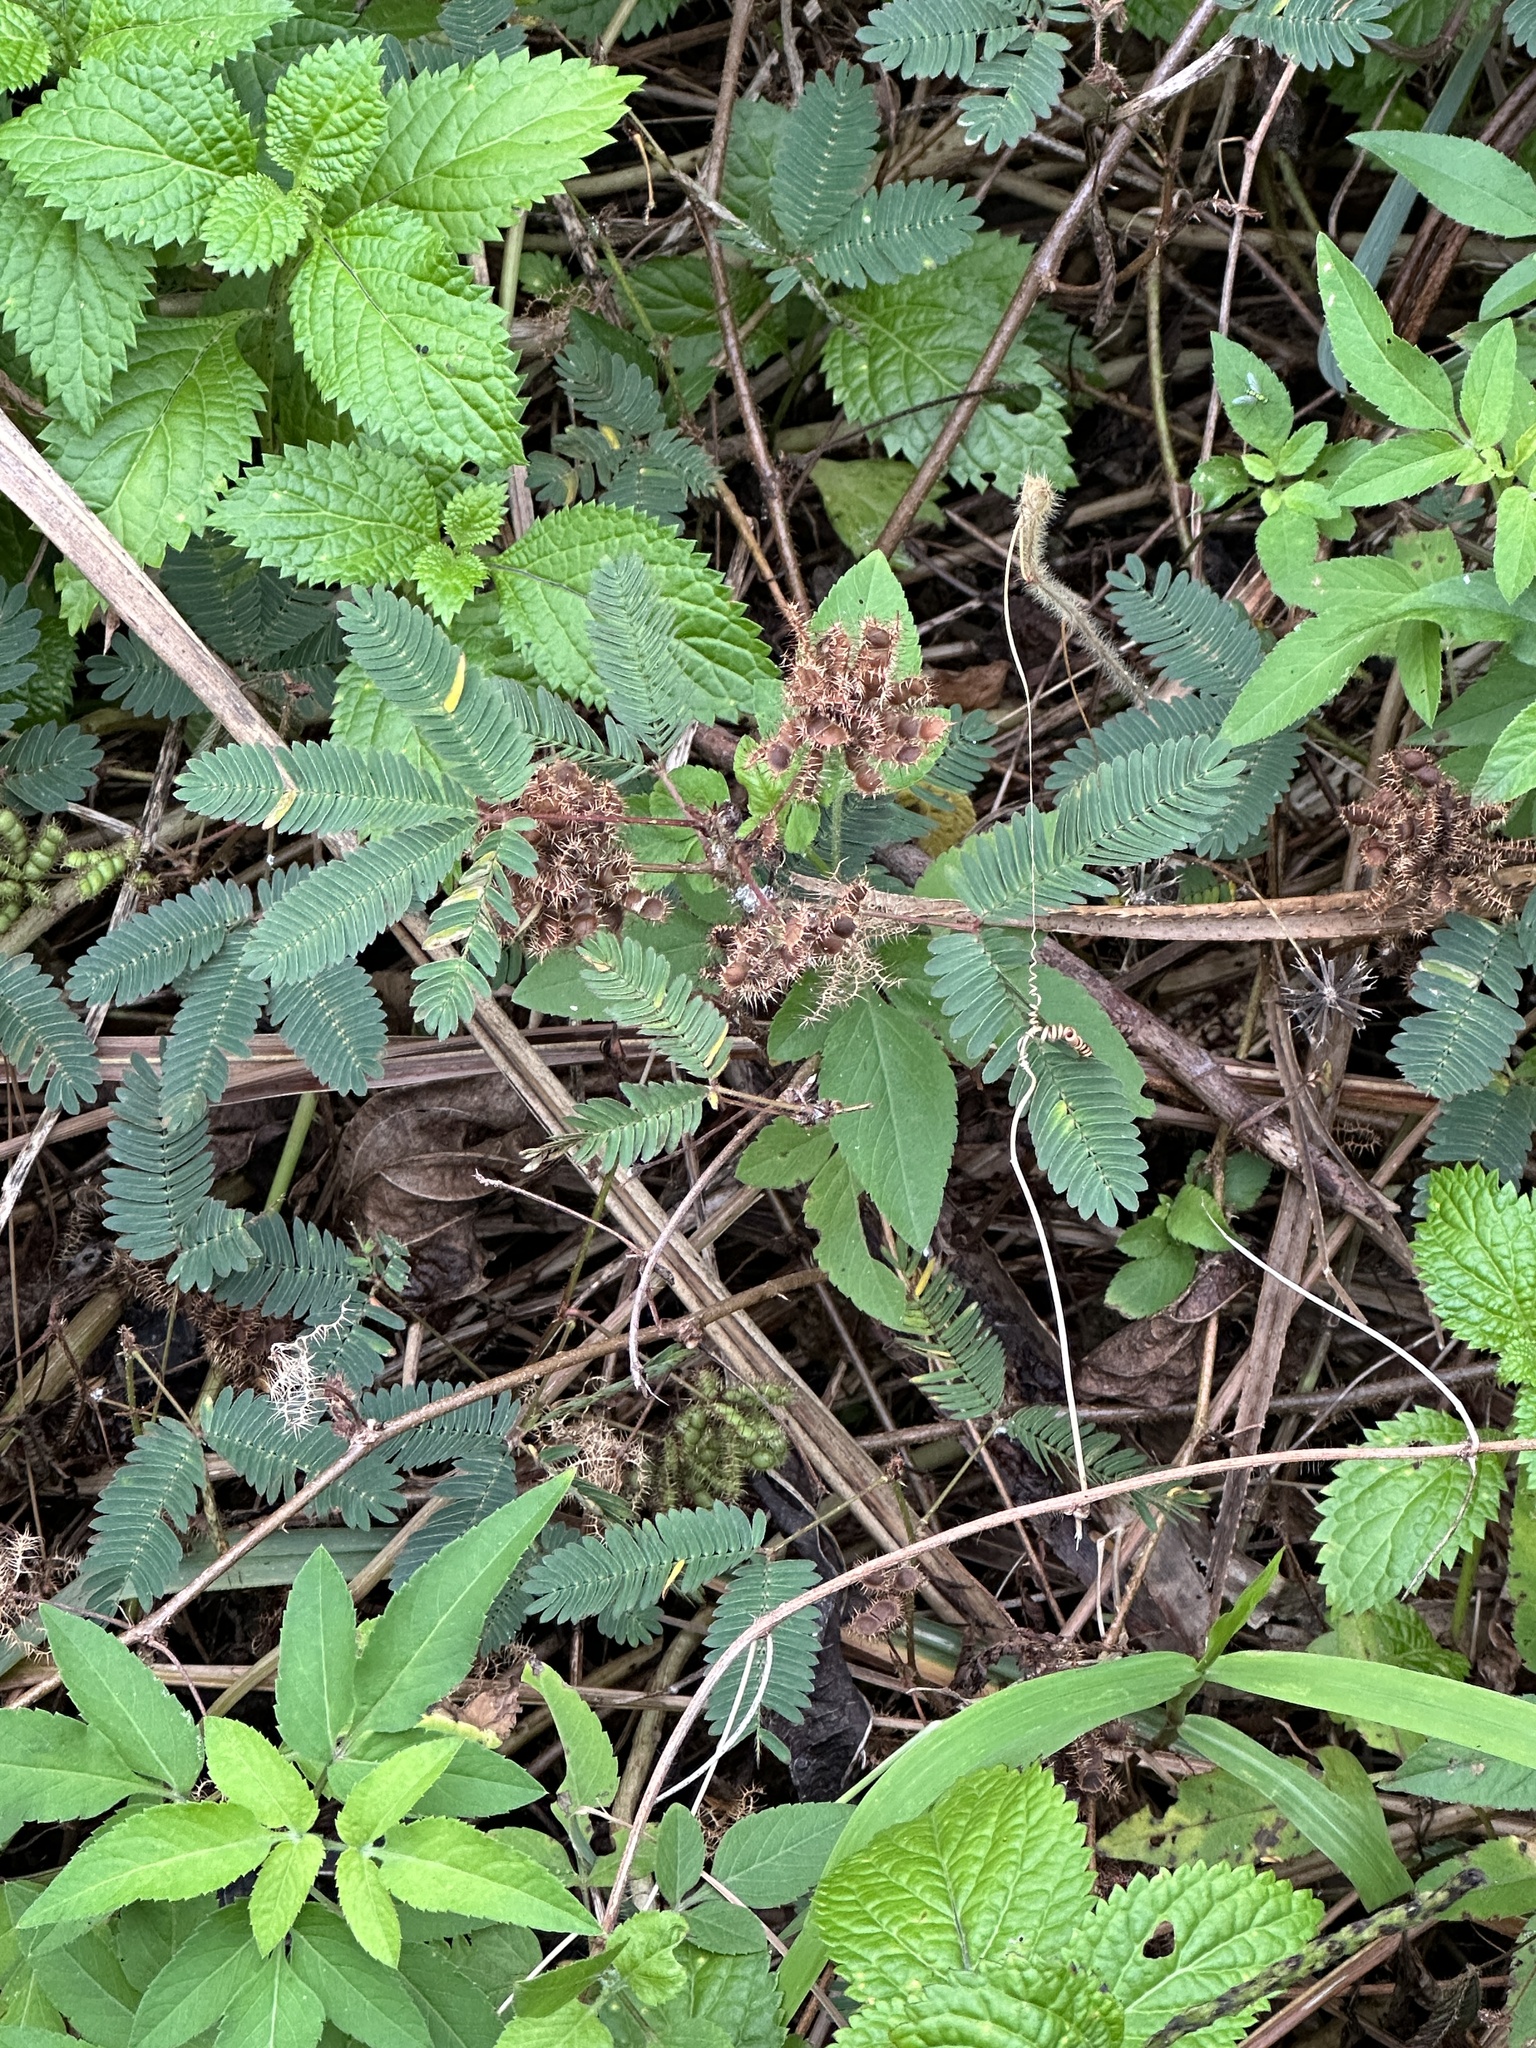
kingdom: Plantae
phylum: Tracheophyta
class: Magnoliopsida
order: Fabales
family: Fabaceae
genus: Mimosa
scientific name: Mimosa pudica
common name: Sensitive plant
